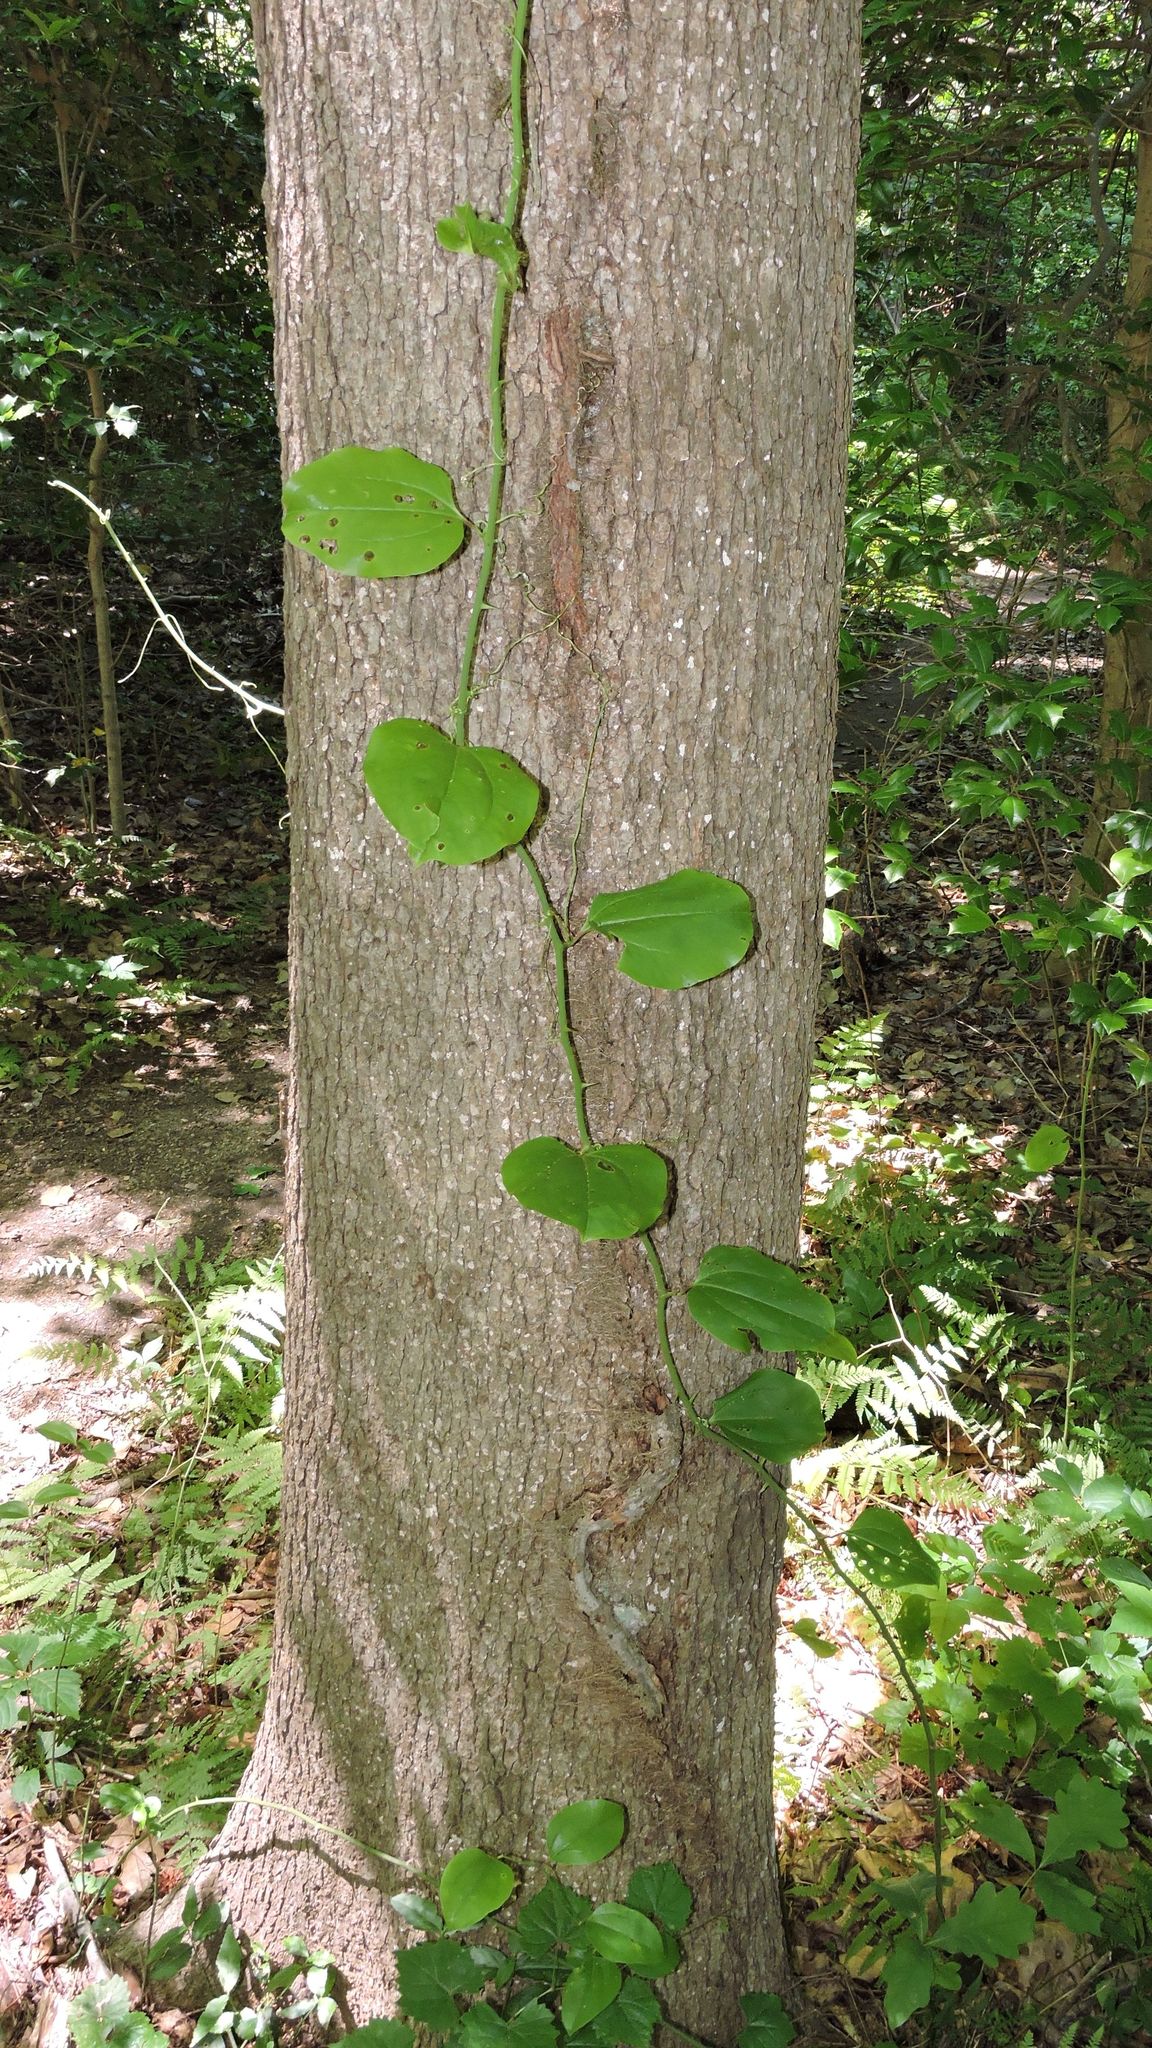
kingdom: Plantae
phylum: Tracheophyta
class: Liliopsida
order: Liliales
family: Smilacaceae
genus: Smilax
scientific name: Smilax rotundifolia
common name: Bullbriar
